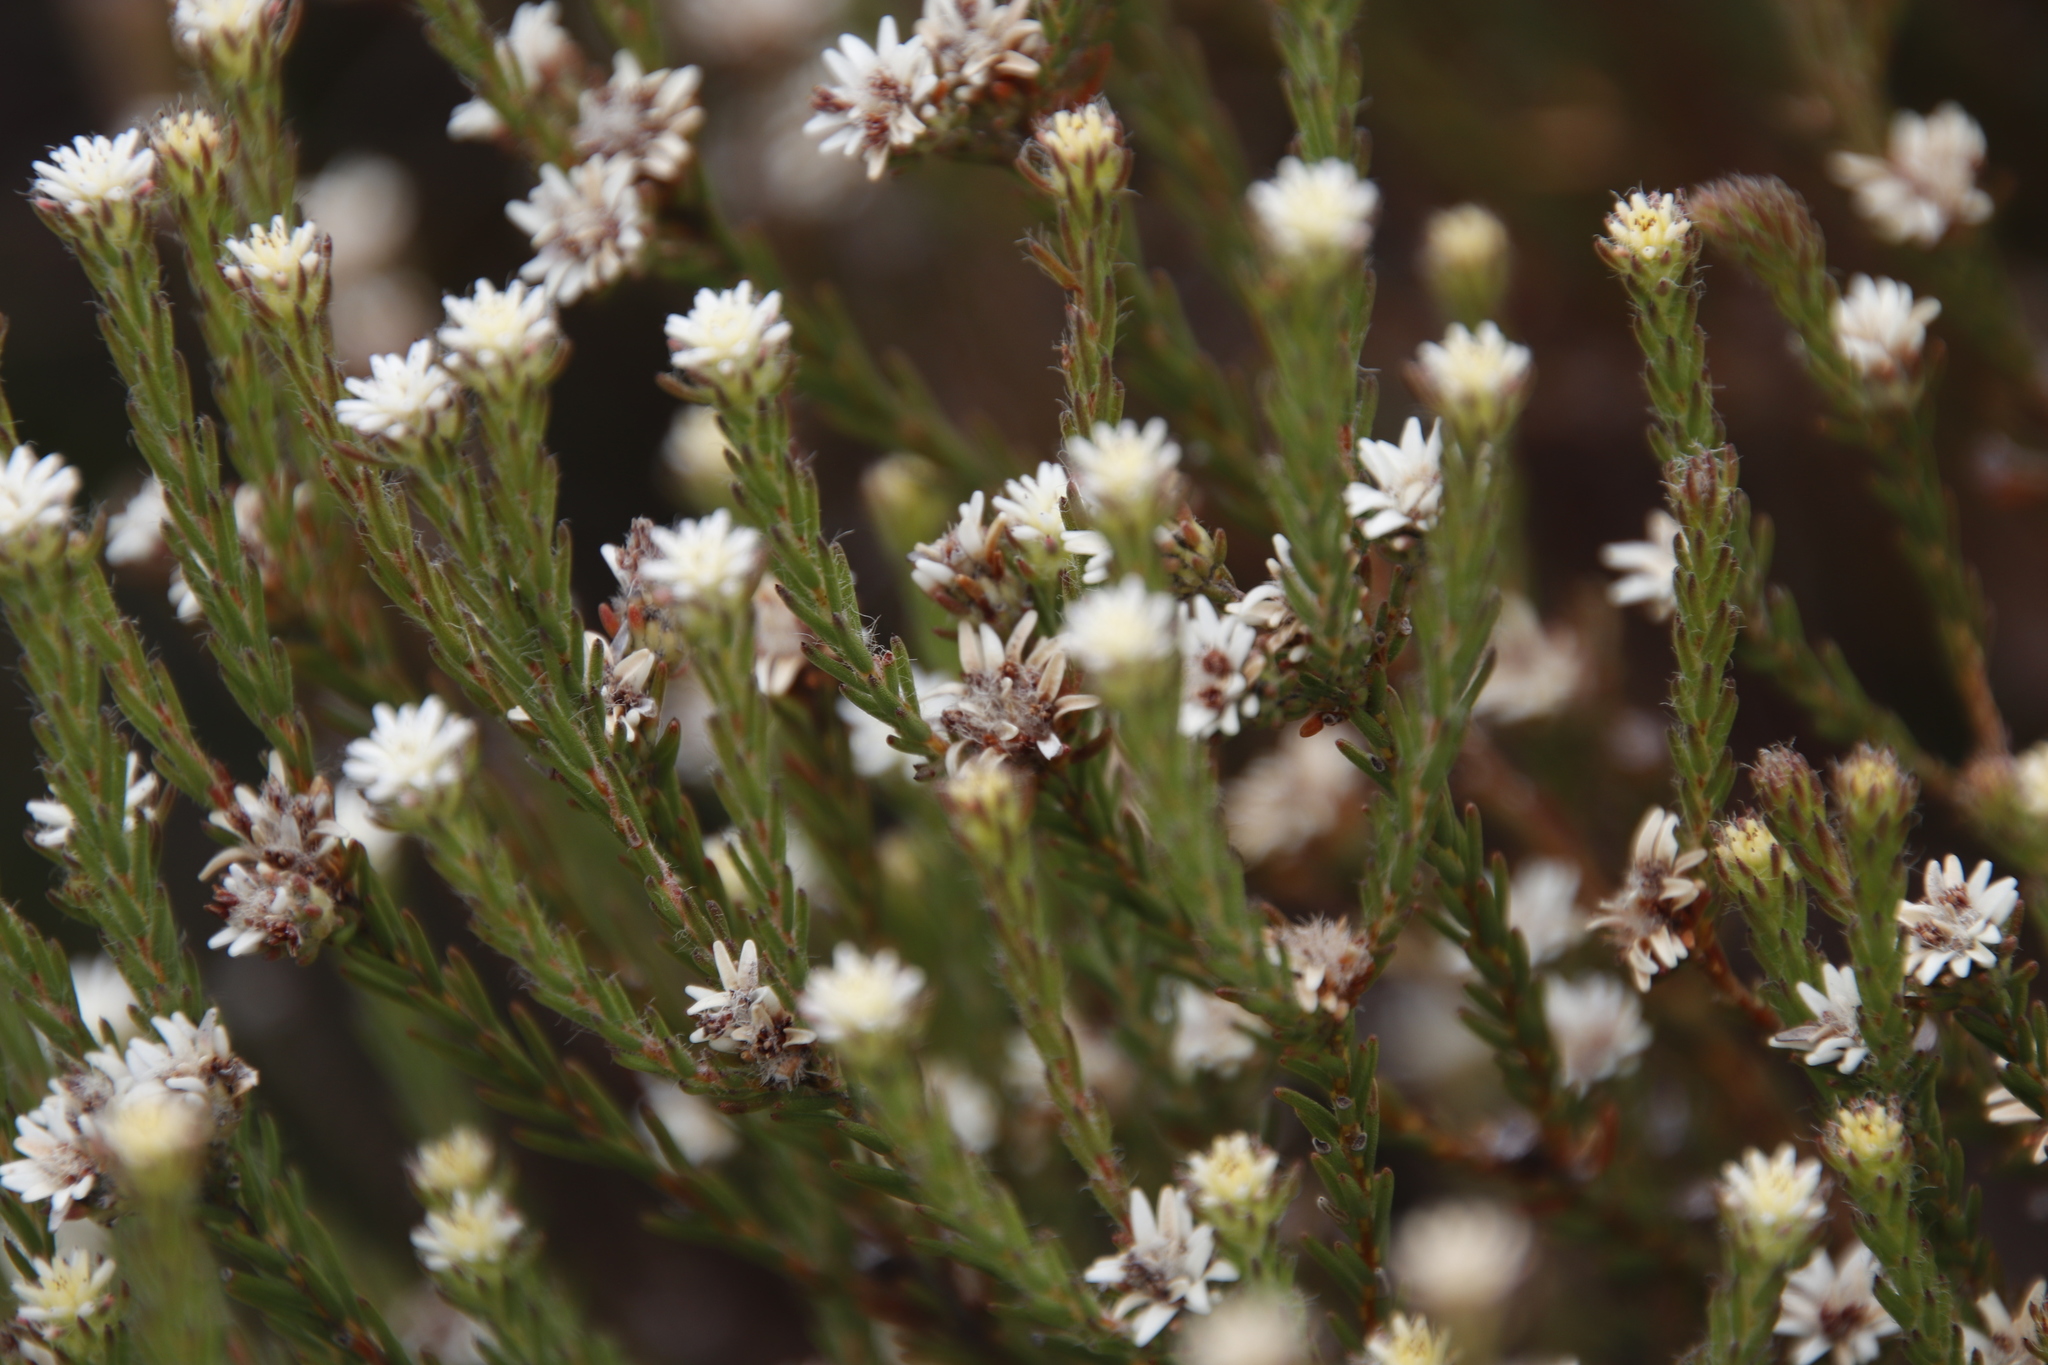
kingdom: Plantae
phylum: Tracheophyta
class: Magnoliopsida
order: Bruniales
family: Bruniaceae
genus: Staavia
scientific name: Staavia radiata
